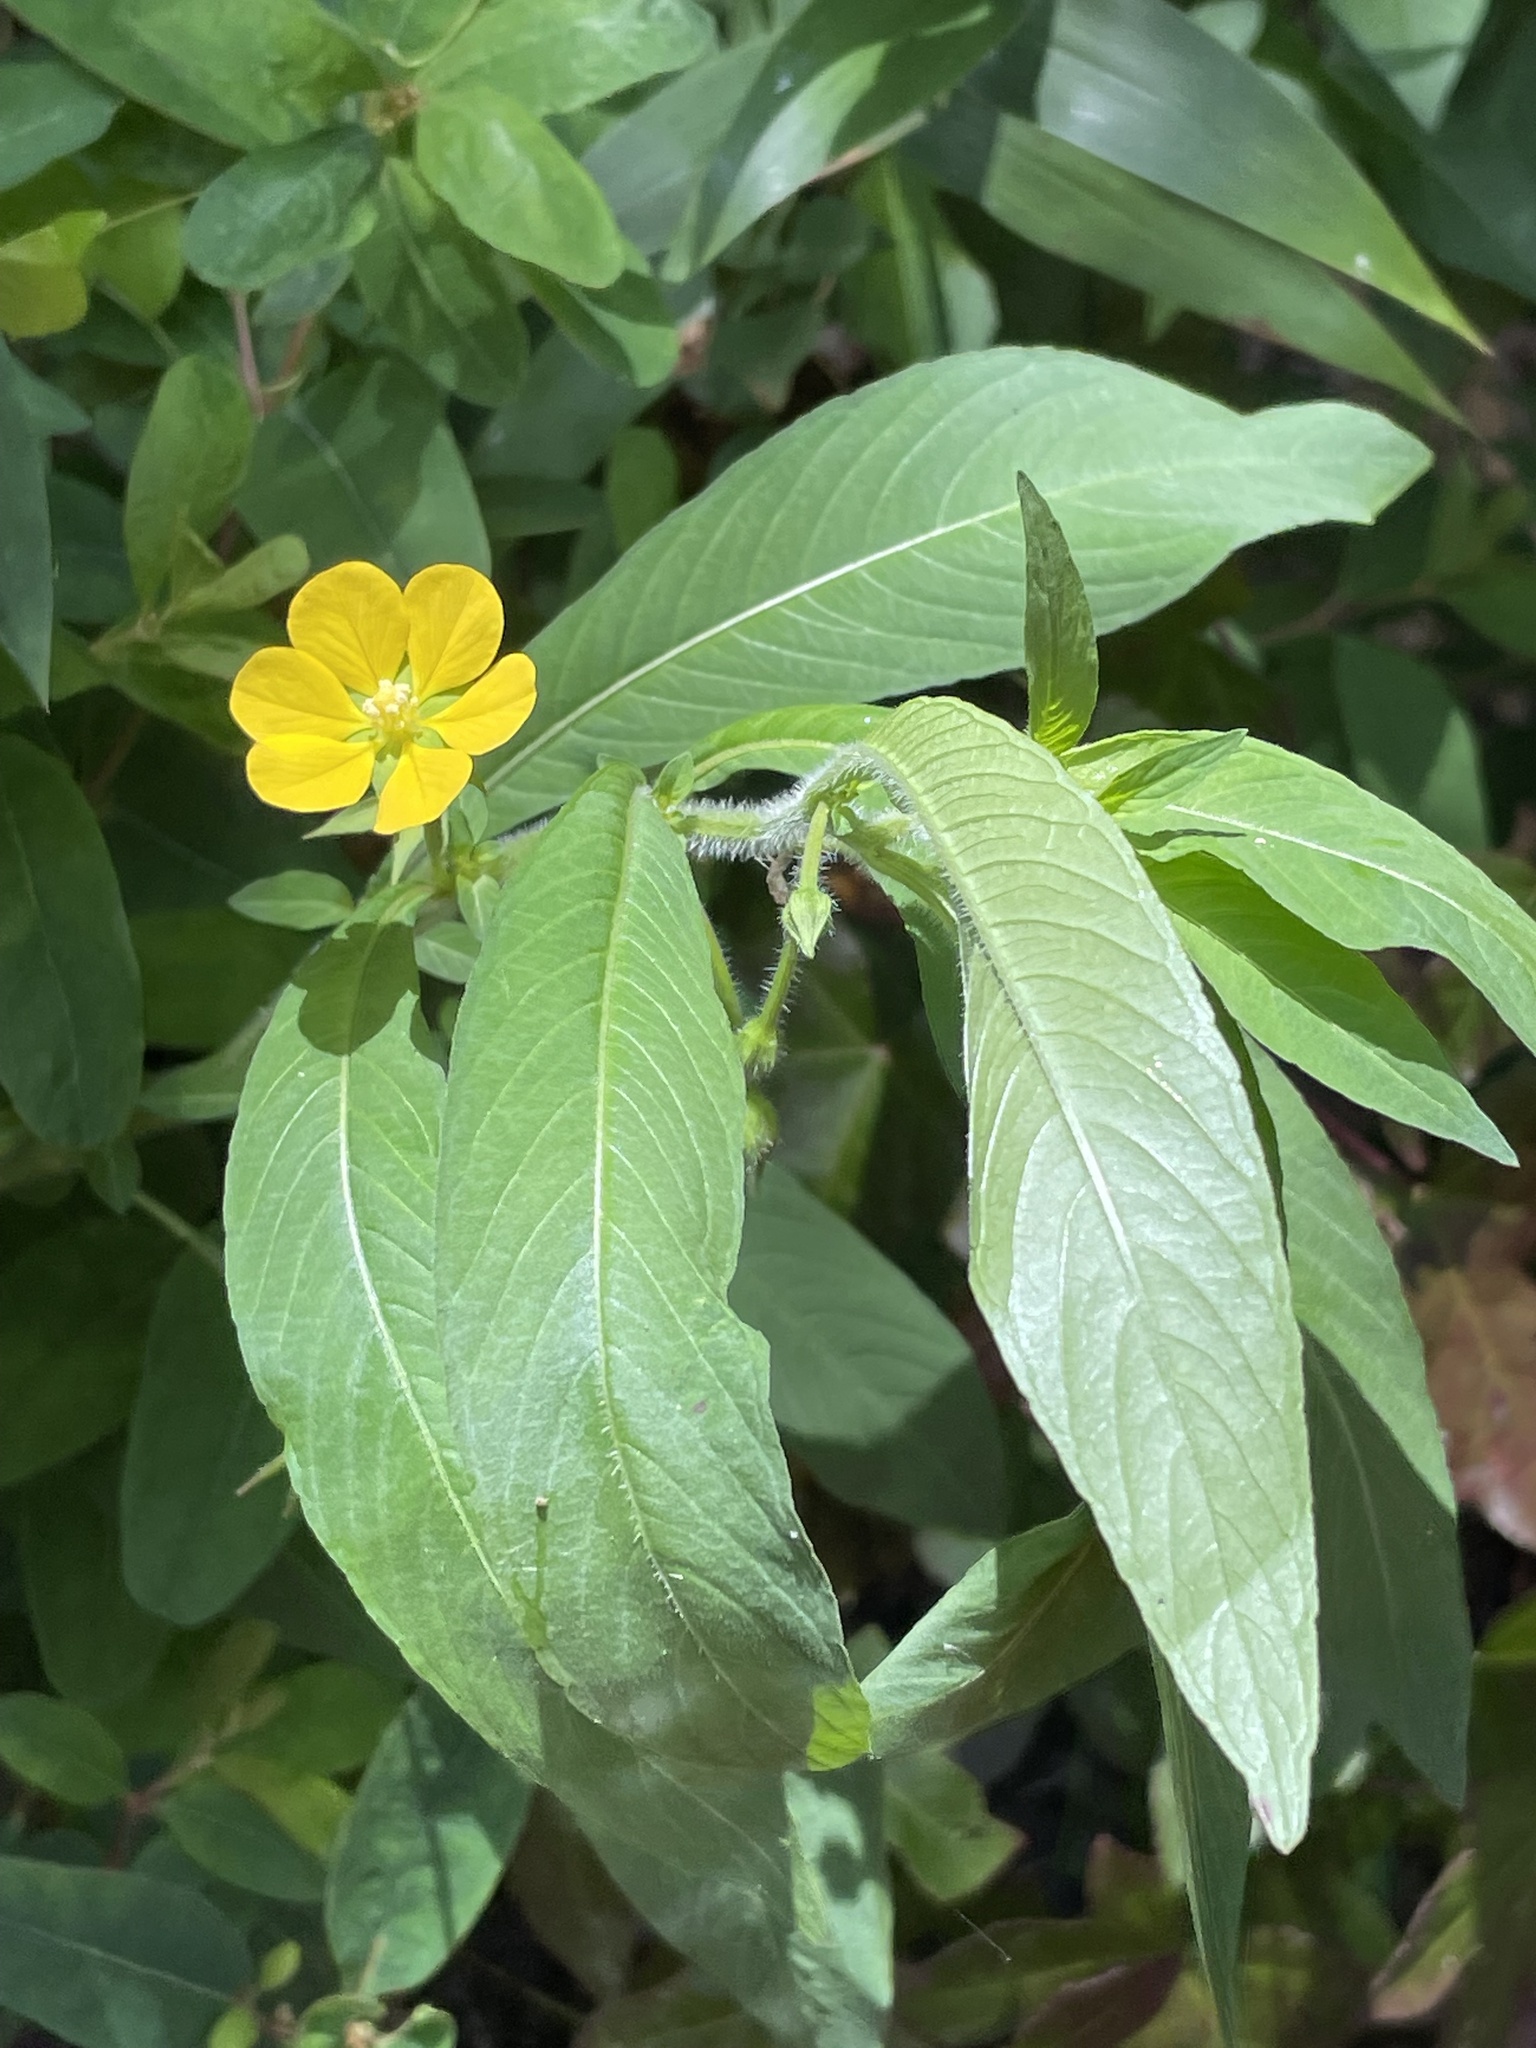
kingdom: Plantae
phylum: Tracheophyta
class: Magnoliopsida
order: Myrtales
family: Onagraceae
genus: Ludwigia
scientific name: Ludwigia leptocarpa
